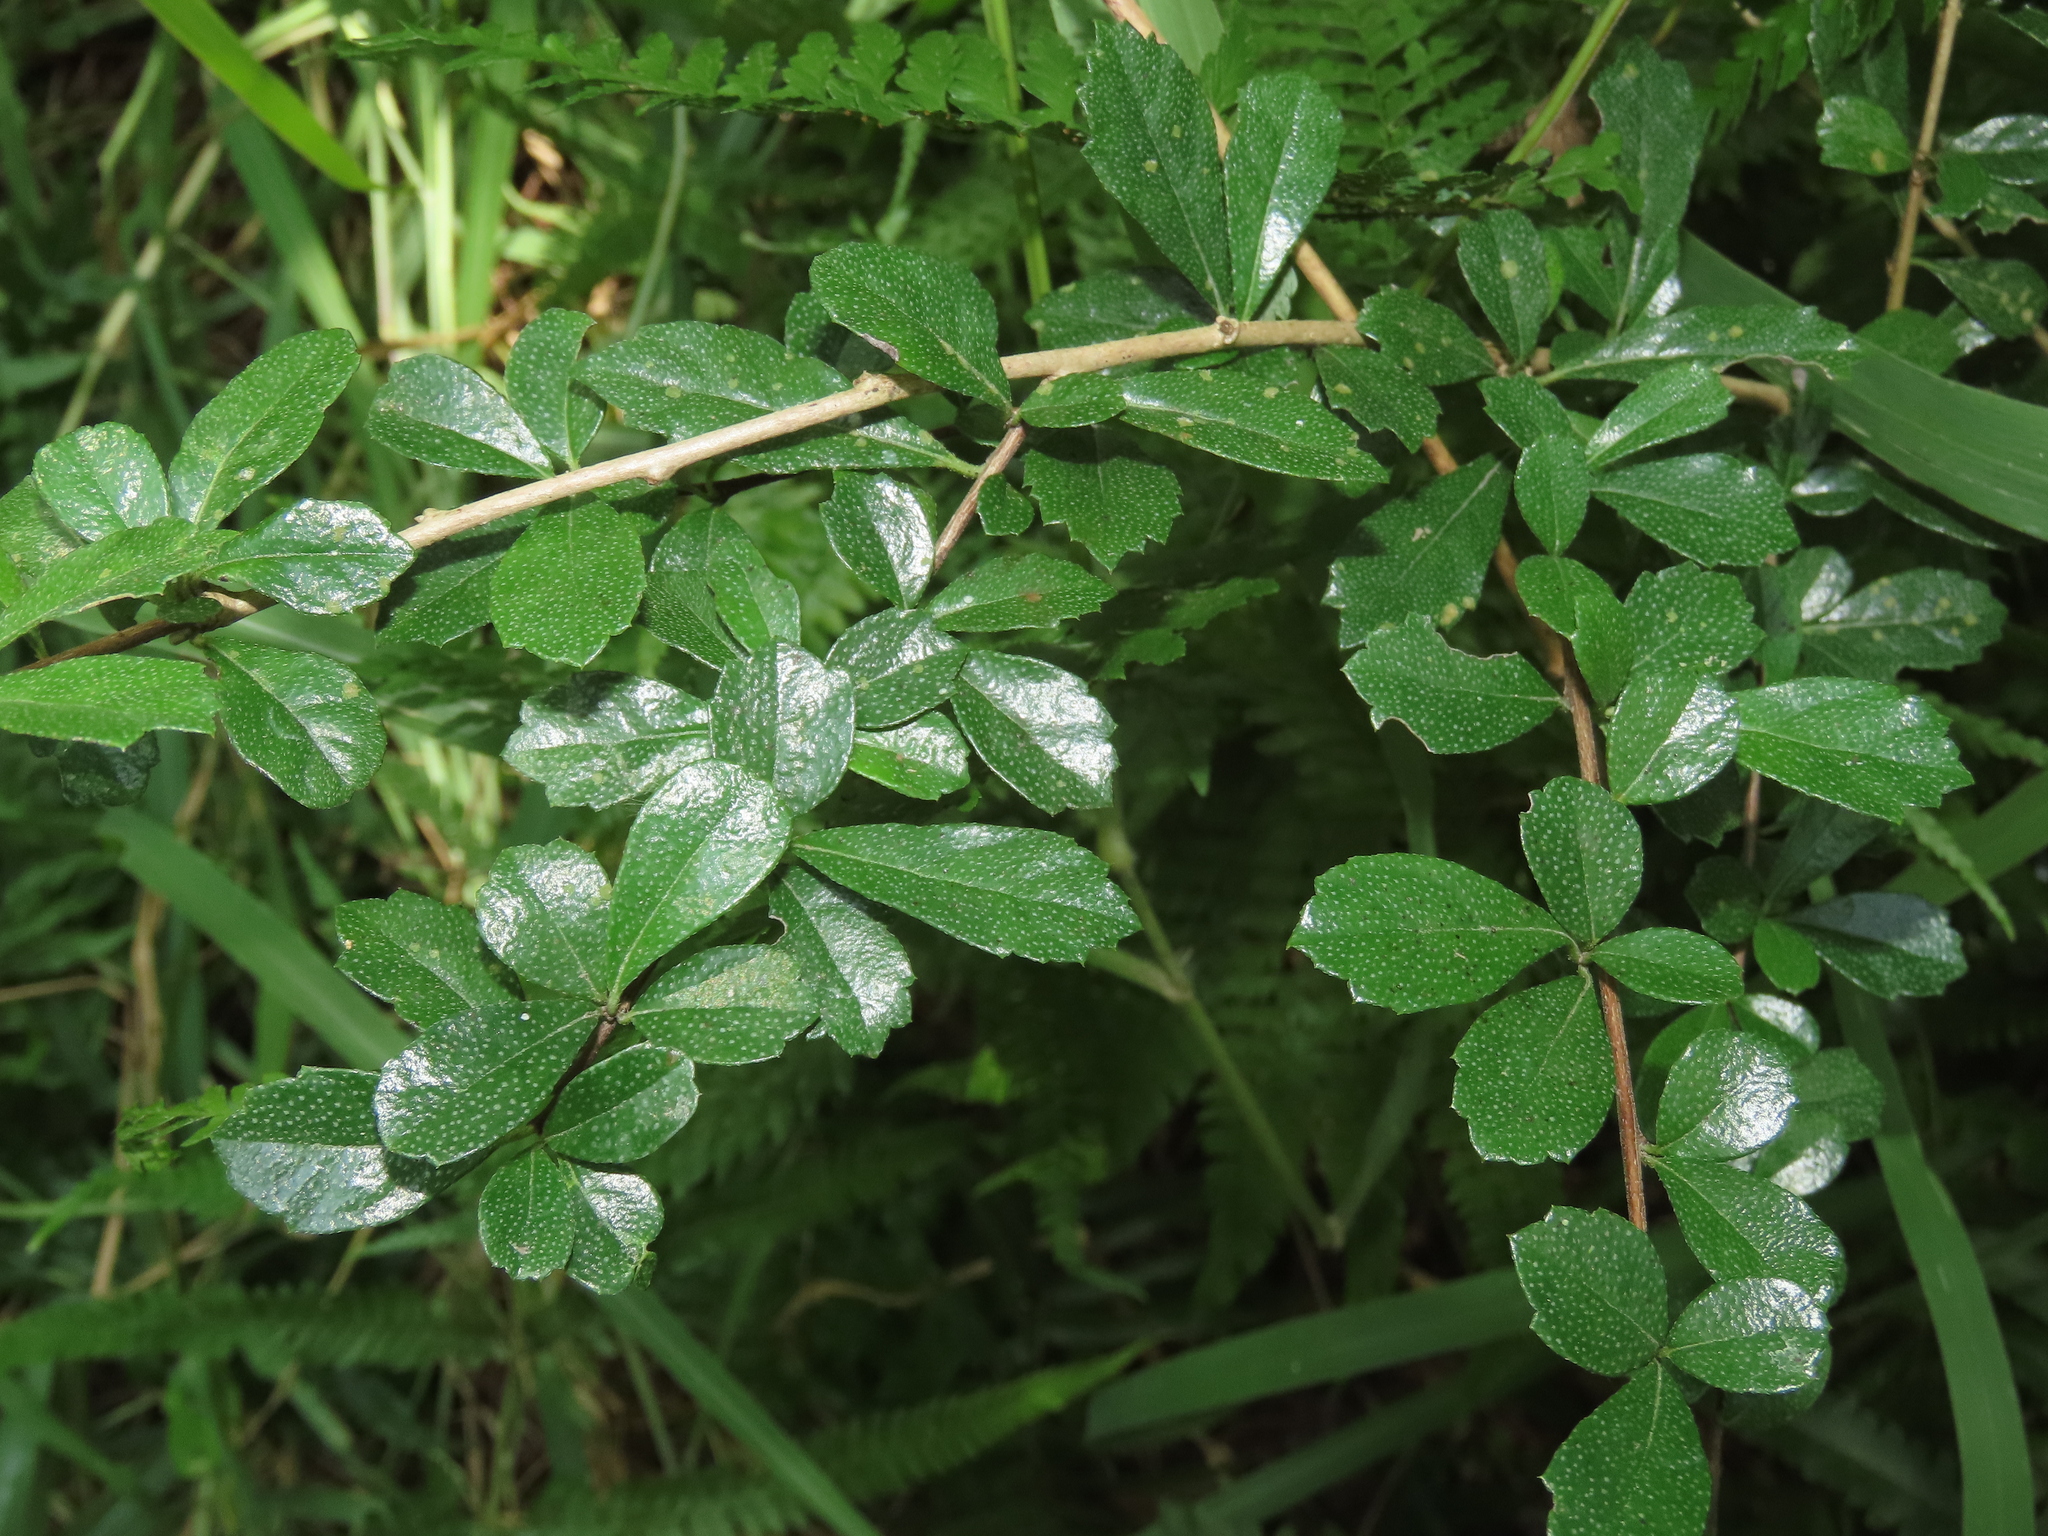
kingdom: Plantae
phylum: Tracheophyta
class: Magnoliopsida
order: Boraginales
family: Ehretiaceae
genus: Ehretia
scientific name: Ehretia microphylla
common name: Fukien-tea
